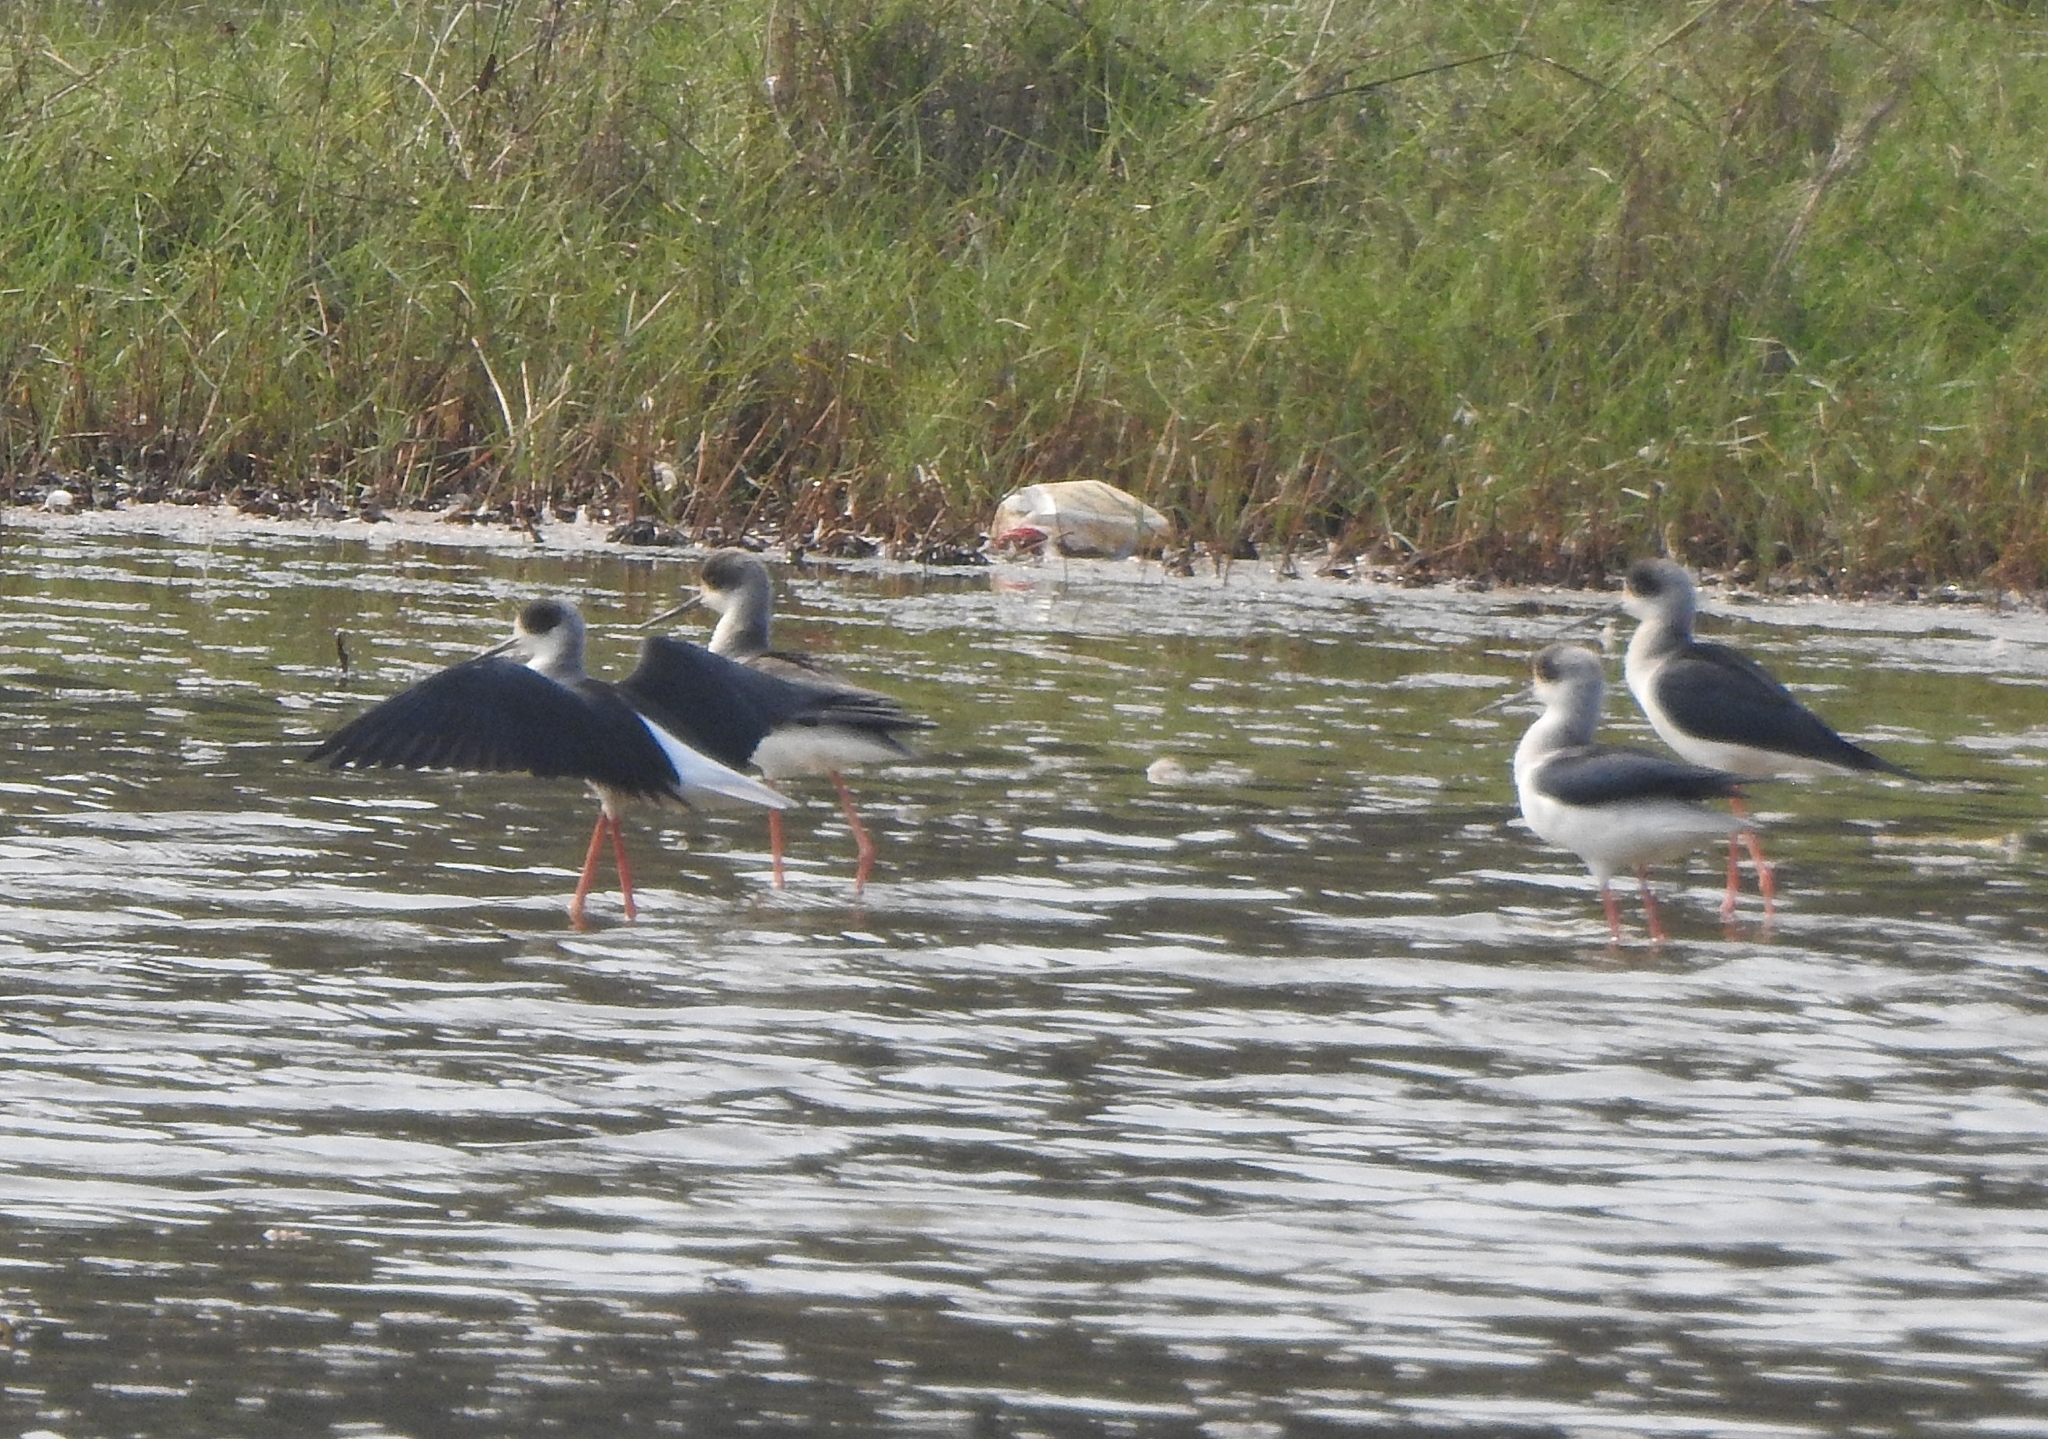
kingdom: Animalia
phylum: Chordata
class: Aves
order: Charadriiformes
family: Recurvirostridae
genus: Himantopus
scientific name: Himantopus himantopus
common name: Black-winged stilt
